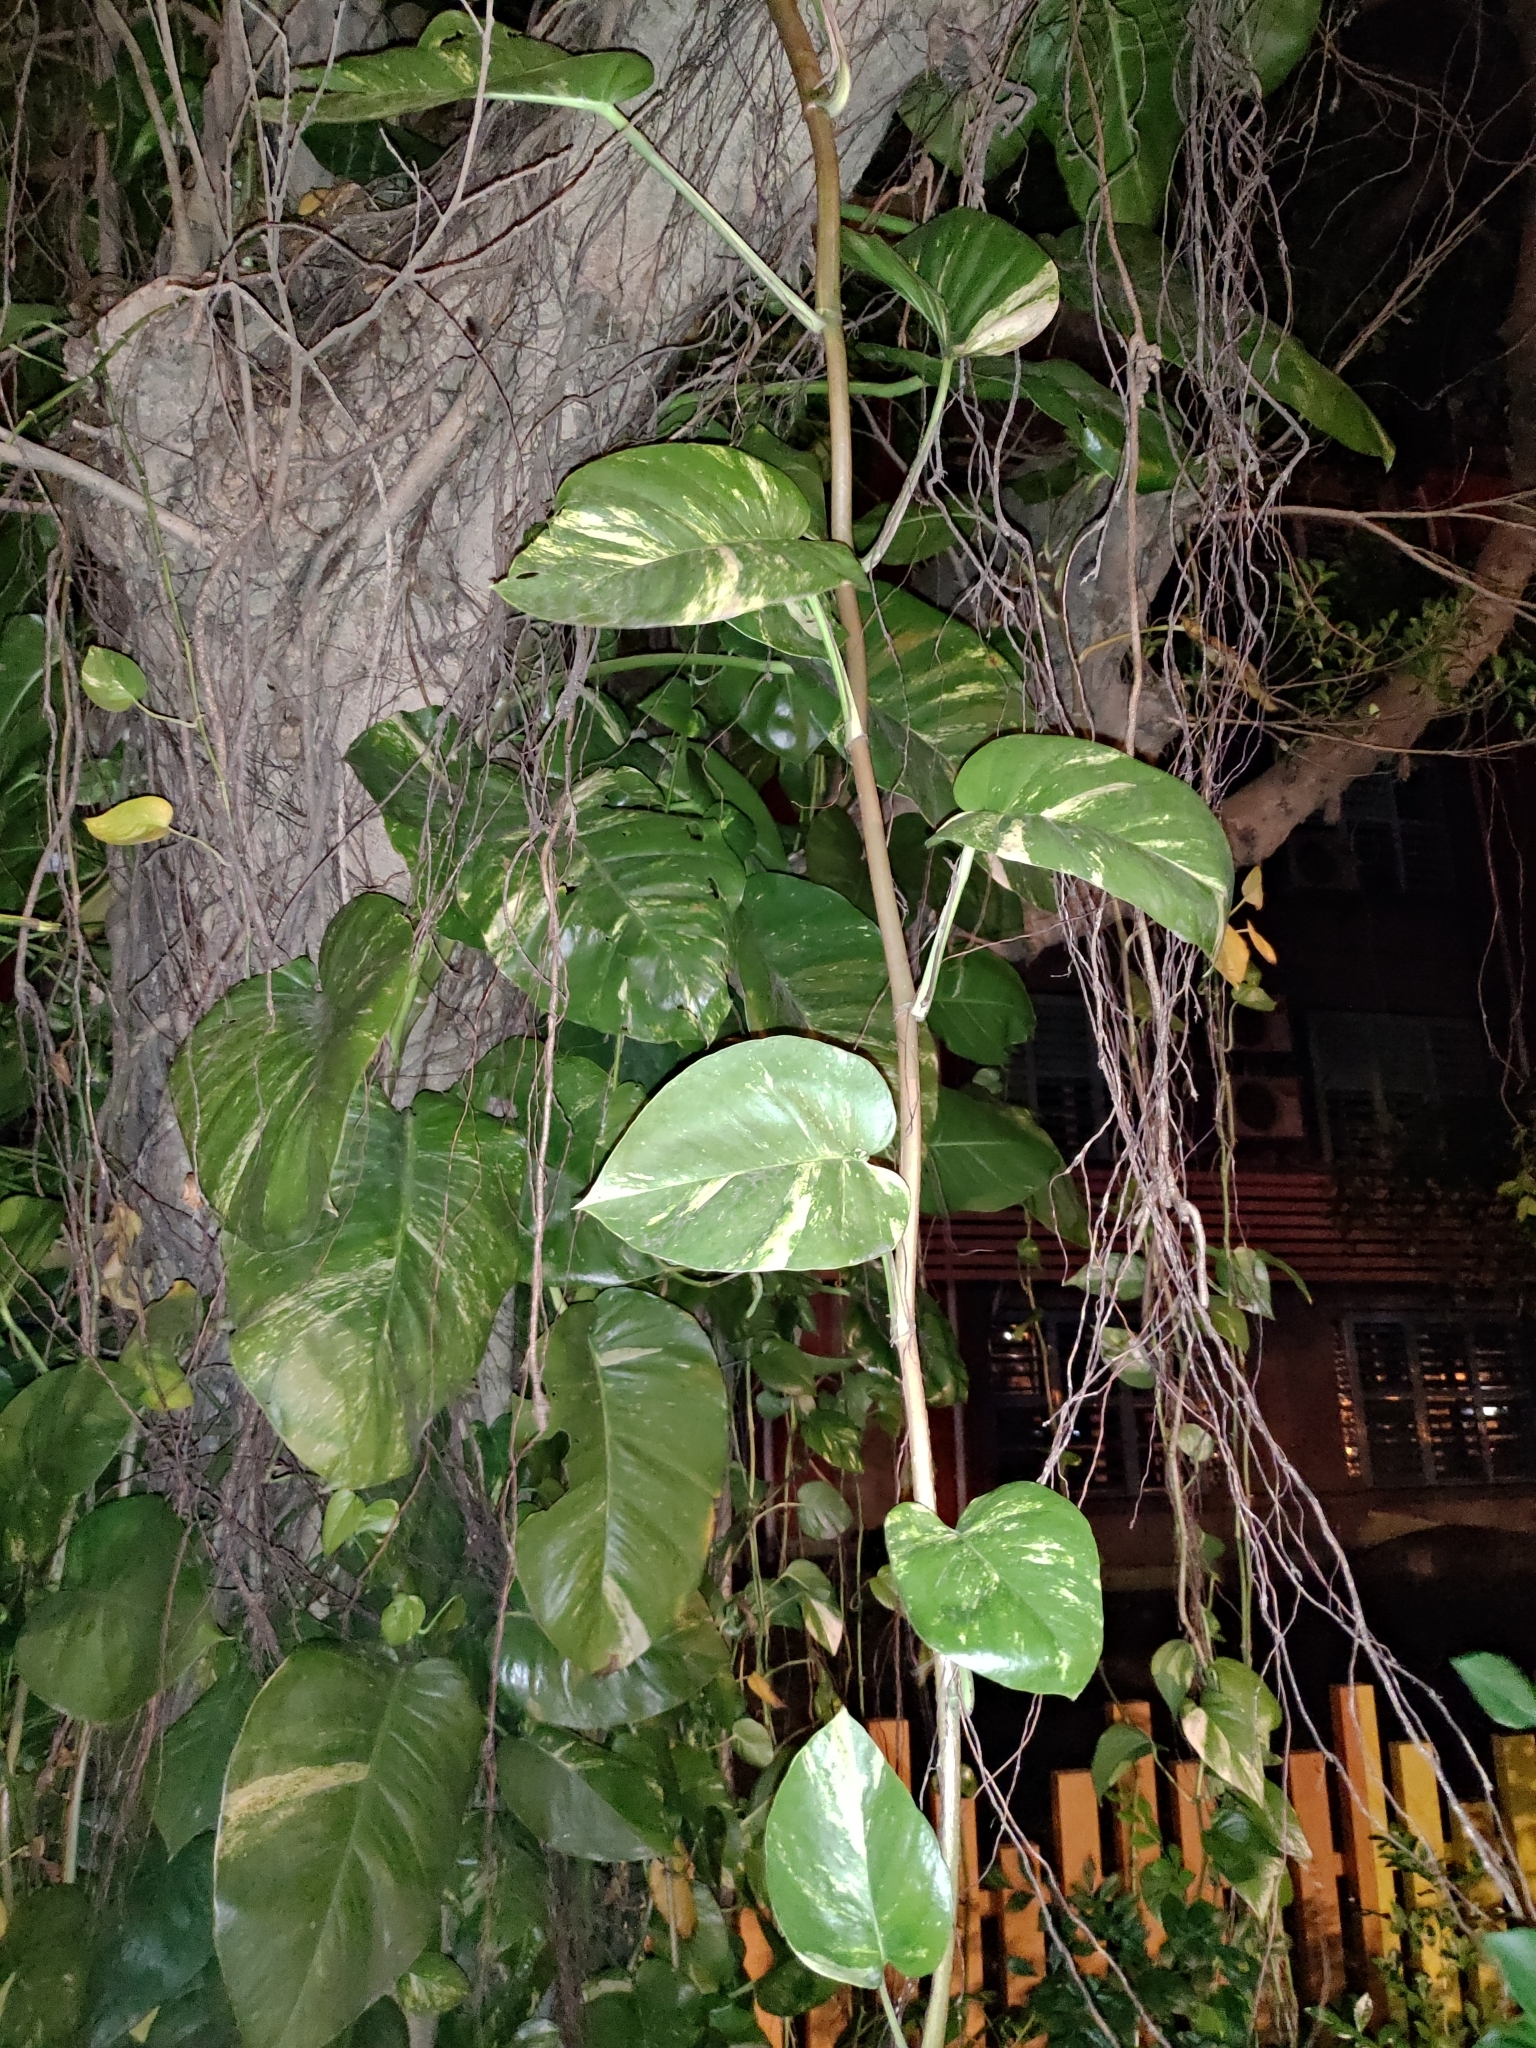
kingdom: Plantae
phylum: Tracheophyta
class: Liliopsida
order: Alismatales
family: Araceae
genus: Epipremnum
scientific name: Epipremnum aureum
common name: Golden hunter's-robe
